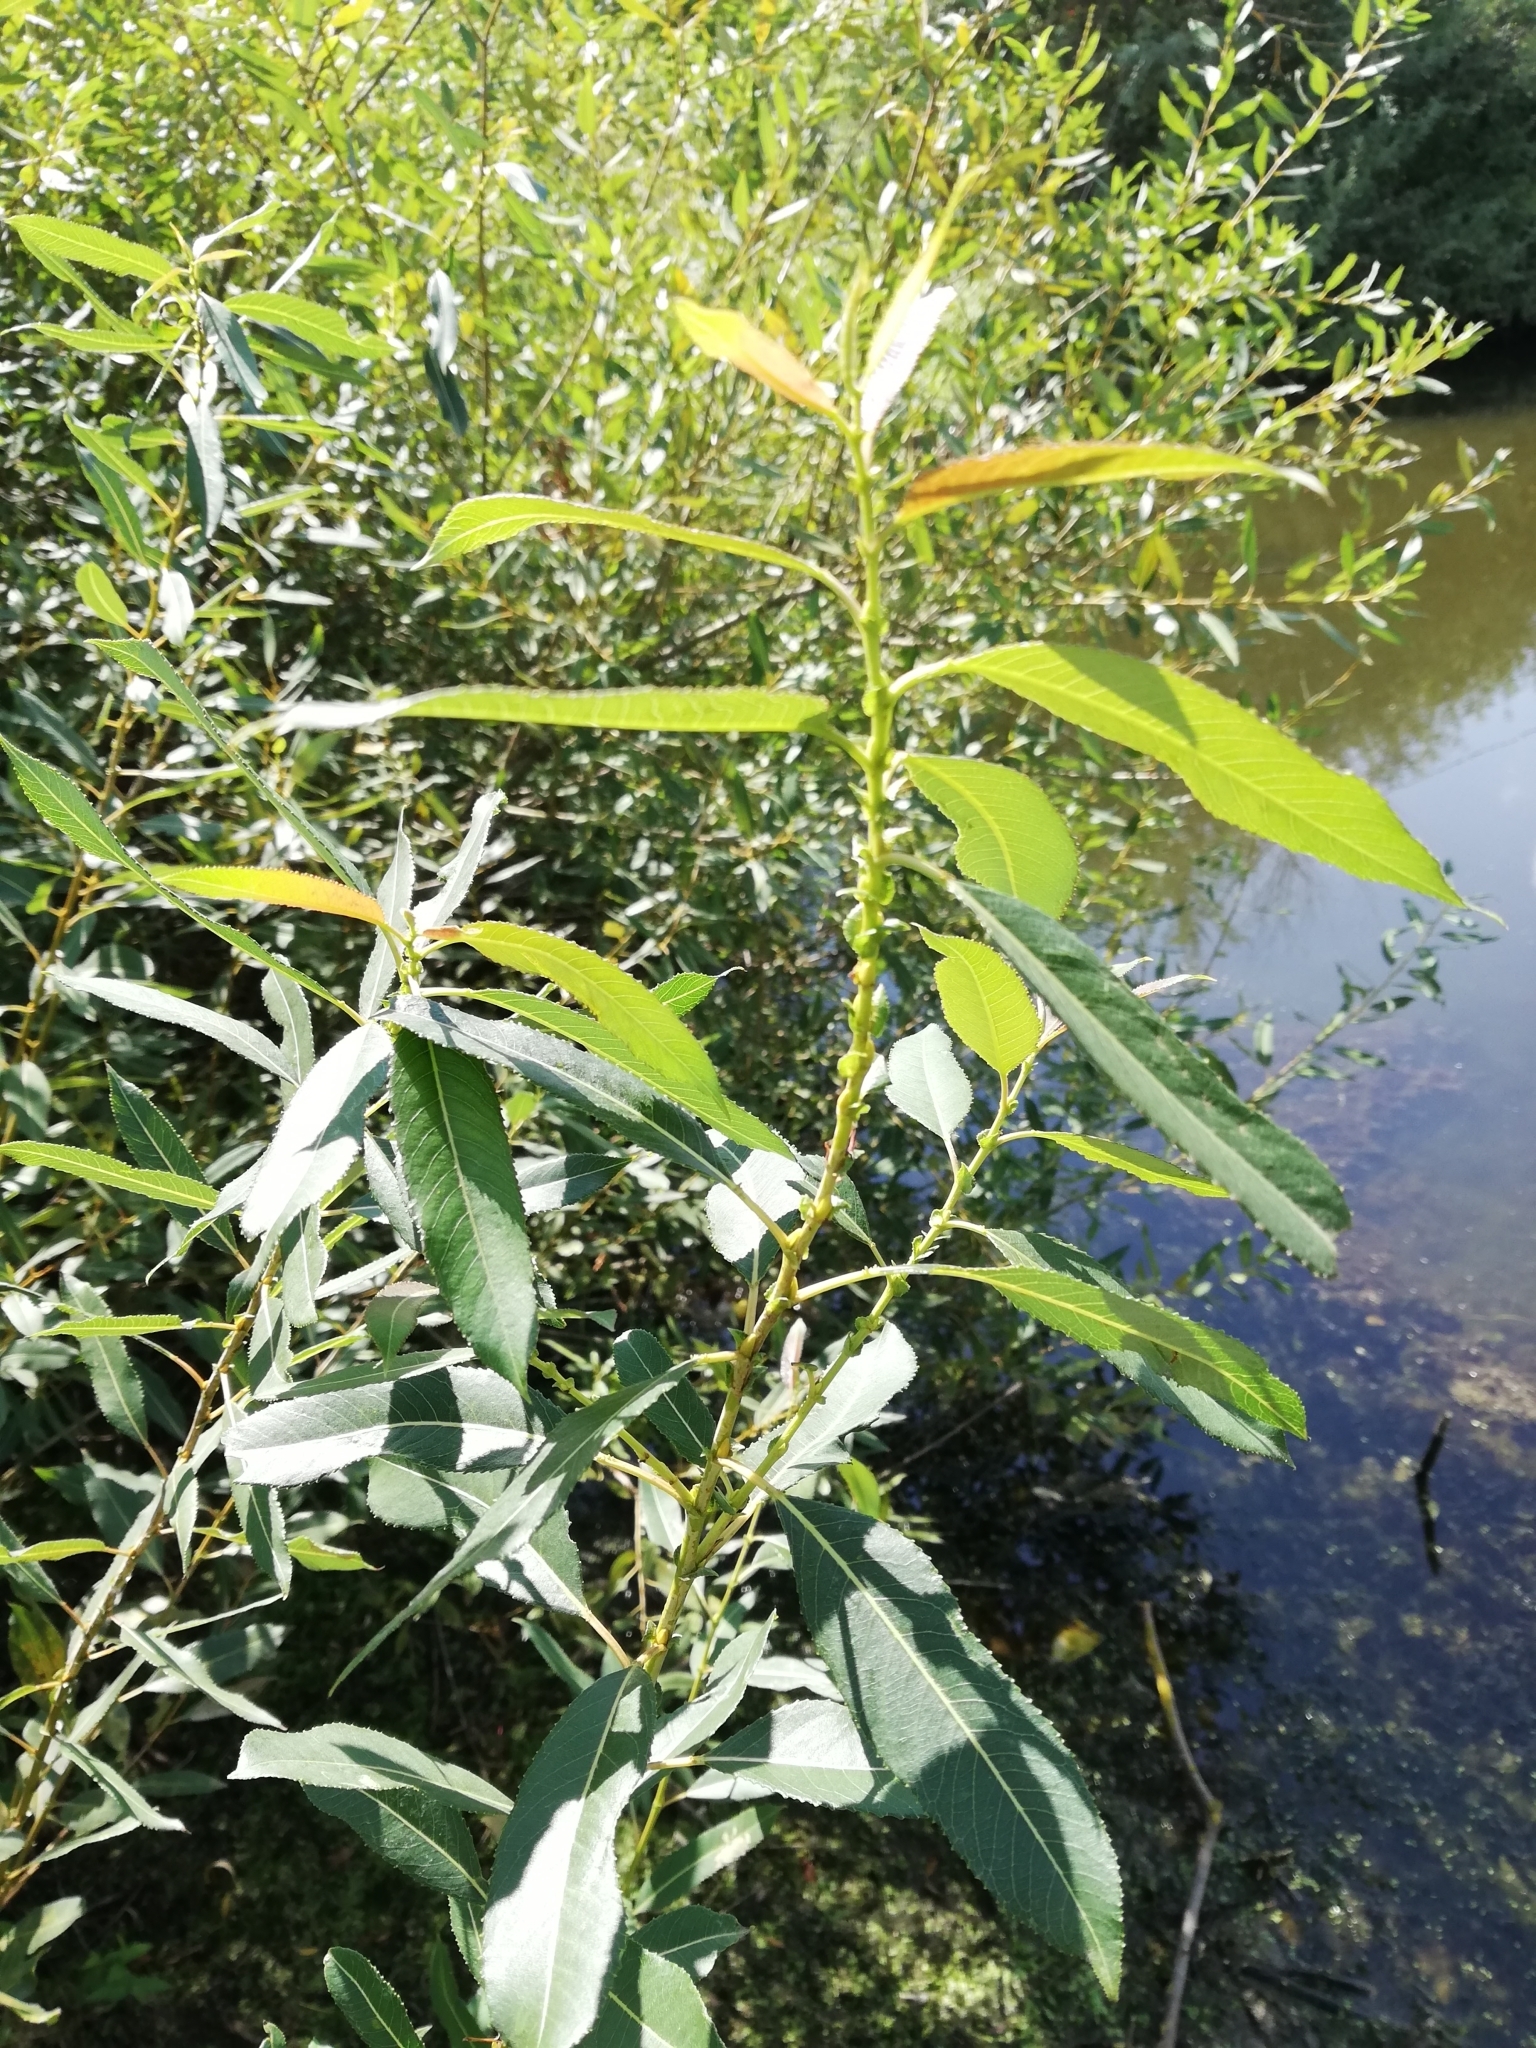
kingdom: Plantae
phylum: Tracheophyta
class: Magnoliopsida
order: Malpighiales
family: Salicaceae
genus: Salix
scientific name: Salix triandra
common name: Almond willow
